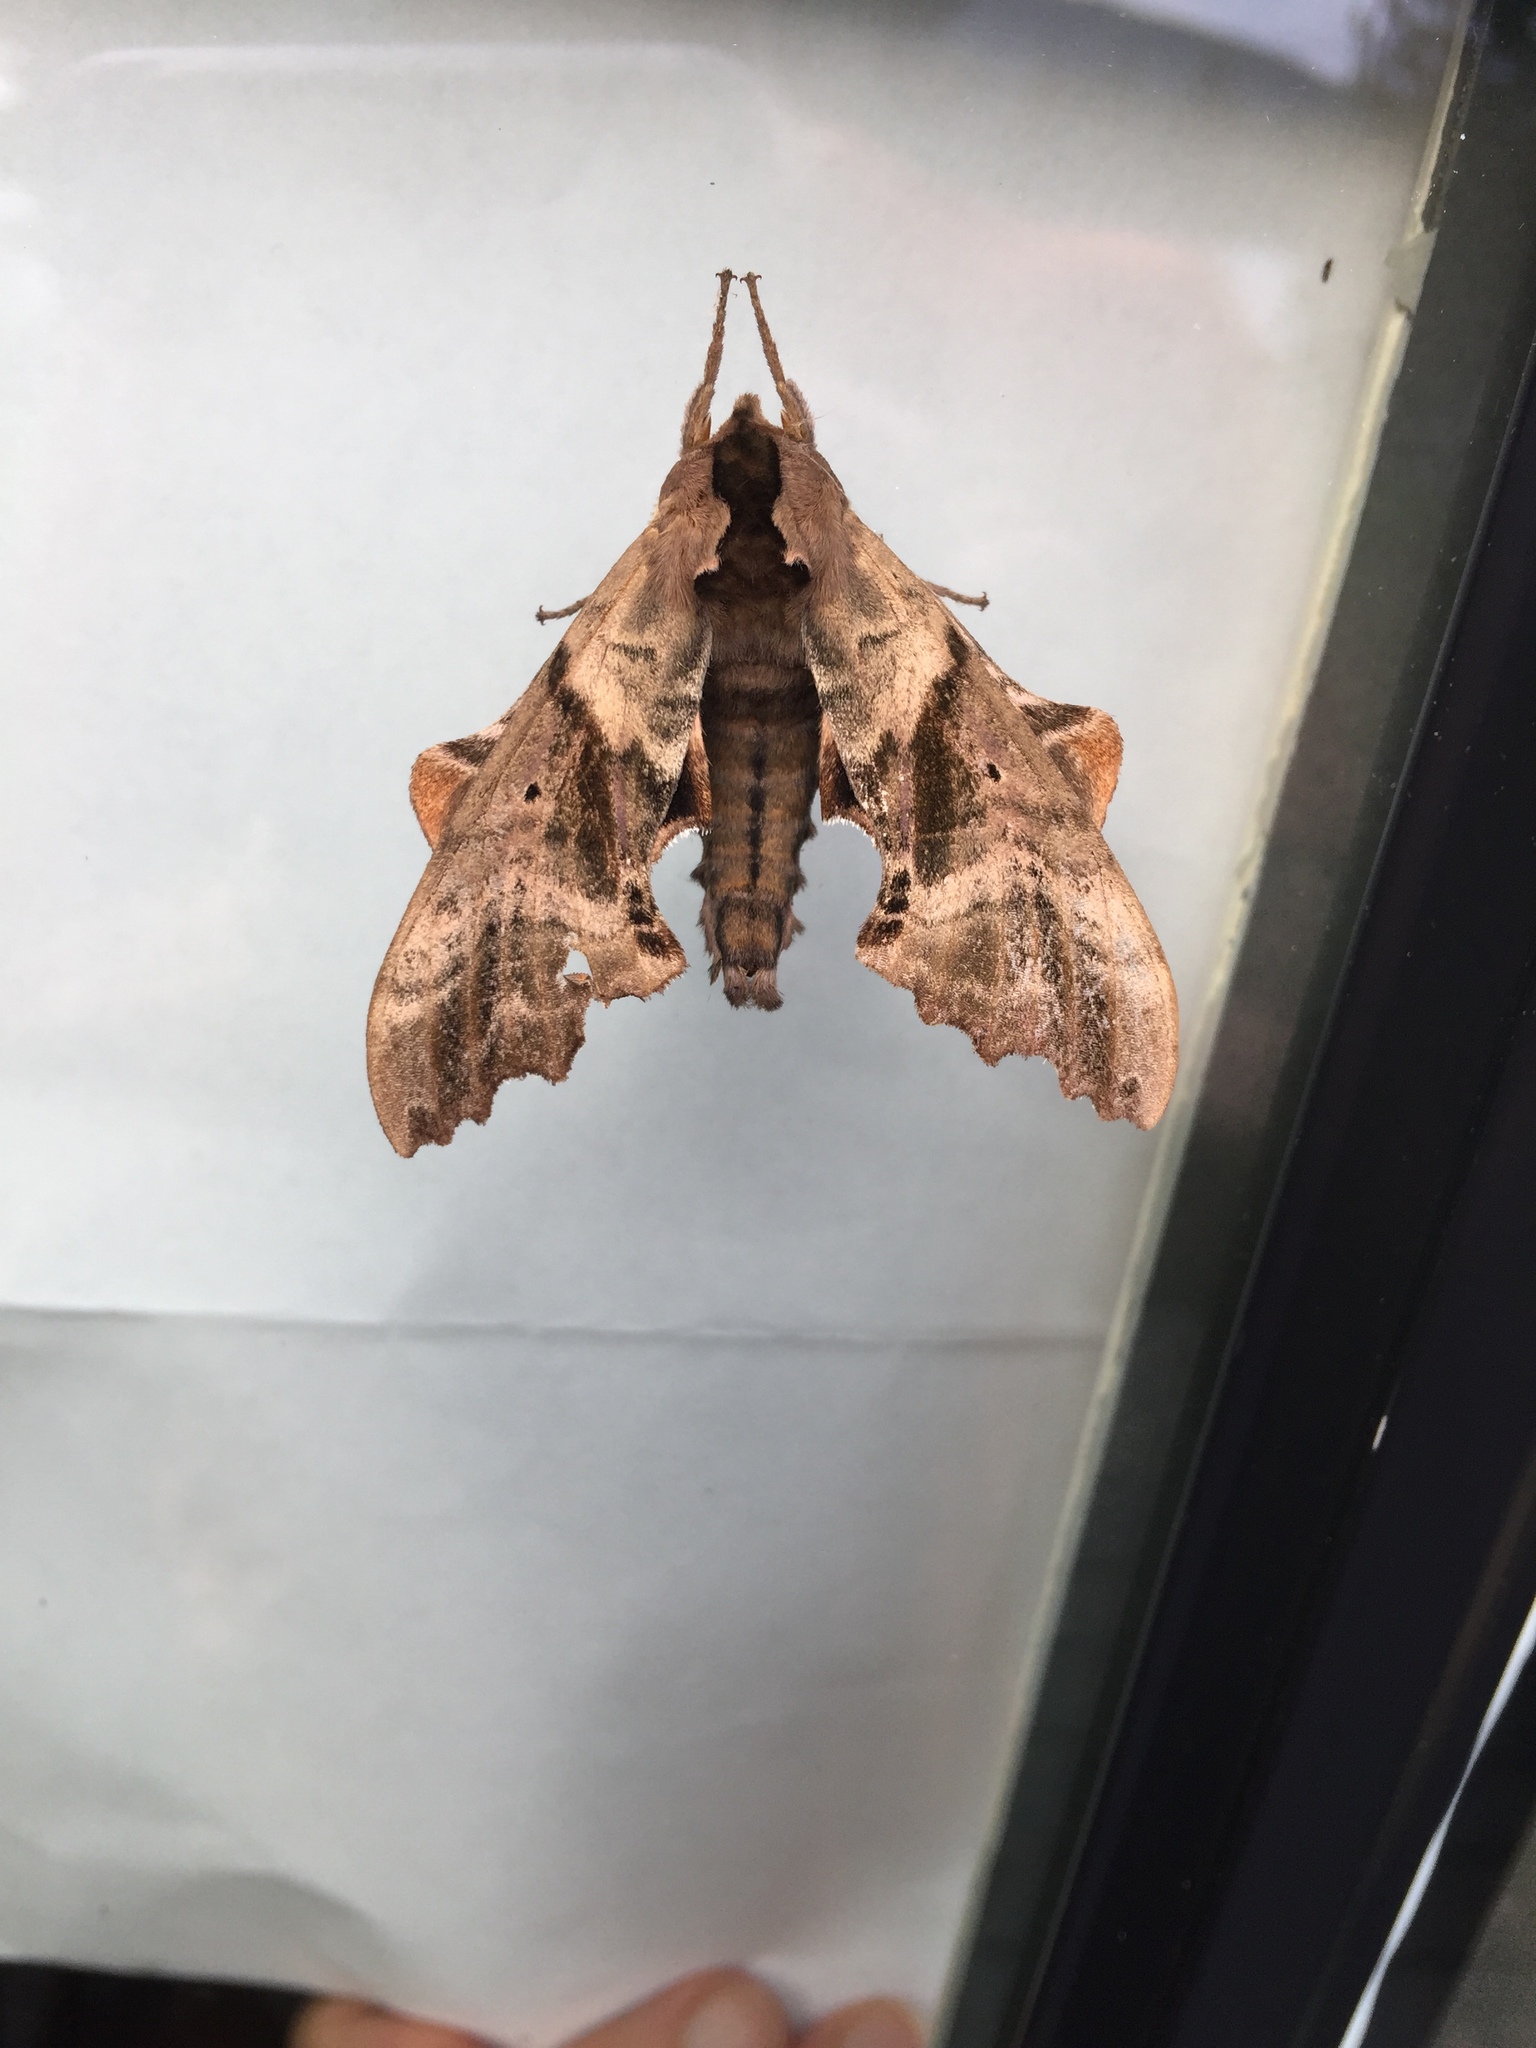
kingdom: Animalia
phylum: Arthropoda
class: Insecta
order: Lepidoptera
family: Sphingidae
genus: Paonias
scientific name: Paonias excaecata
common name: Blind-eyed sphinx
